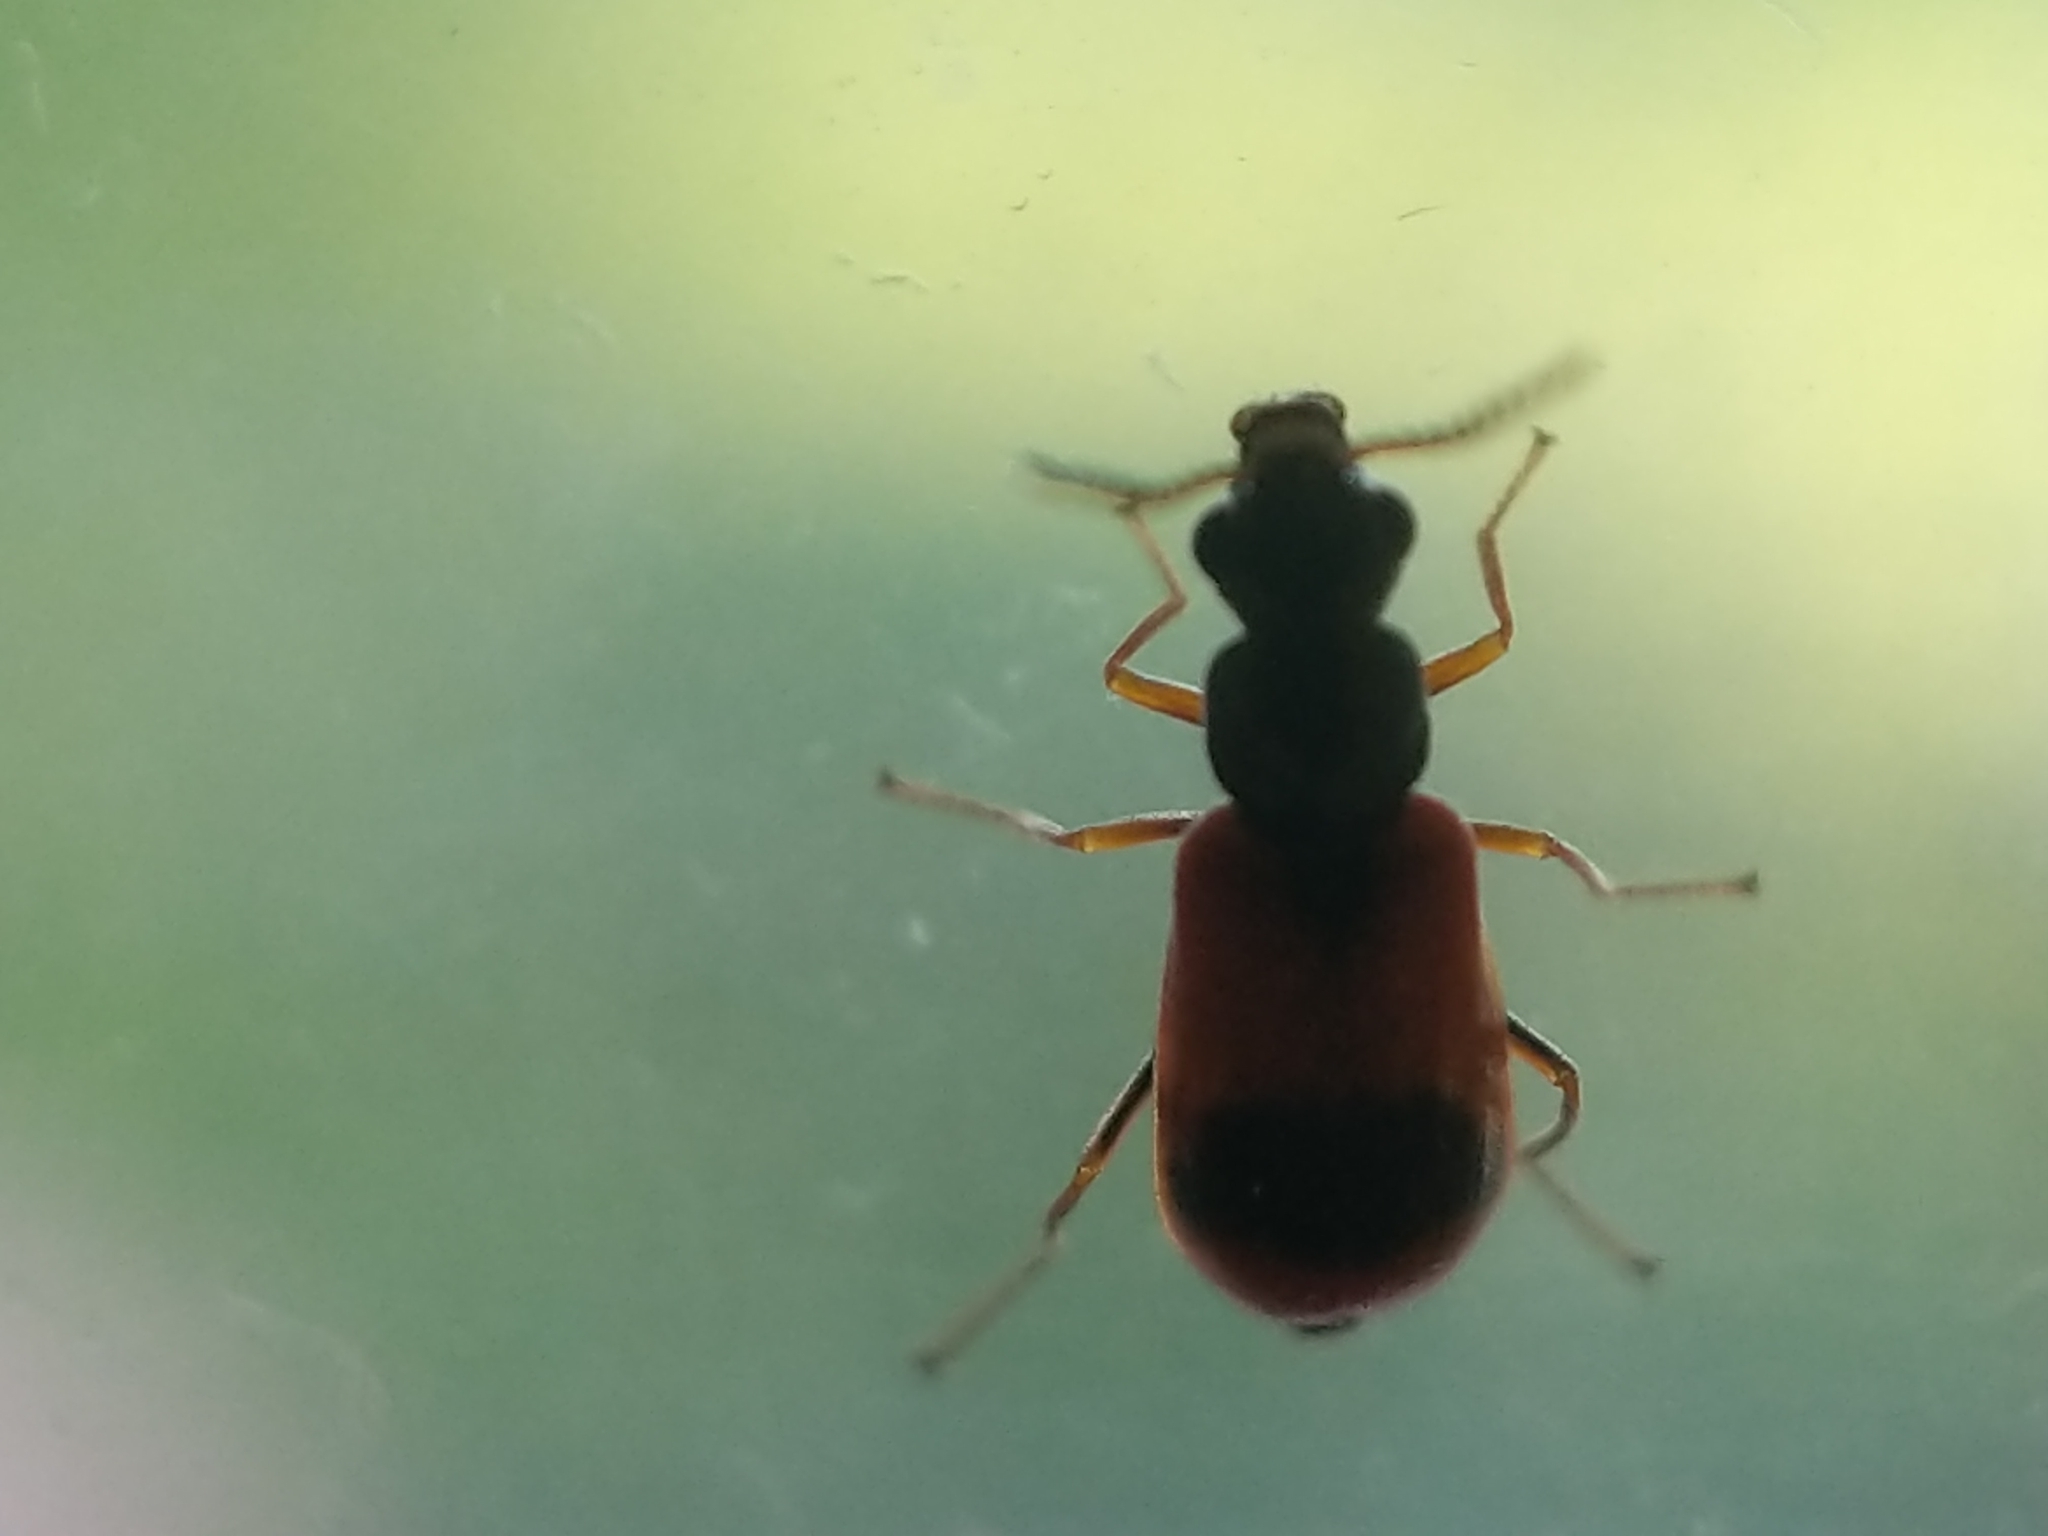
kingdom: Animalia
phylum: Arthropoda
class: Insecta
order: Coleoptera
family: Melyridae
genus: Anthocomus
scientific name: Anthocomus equestris
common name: Black-banded soft-winged flower beetle
